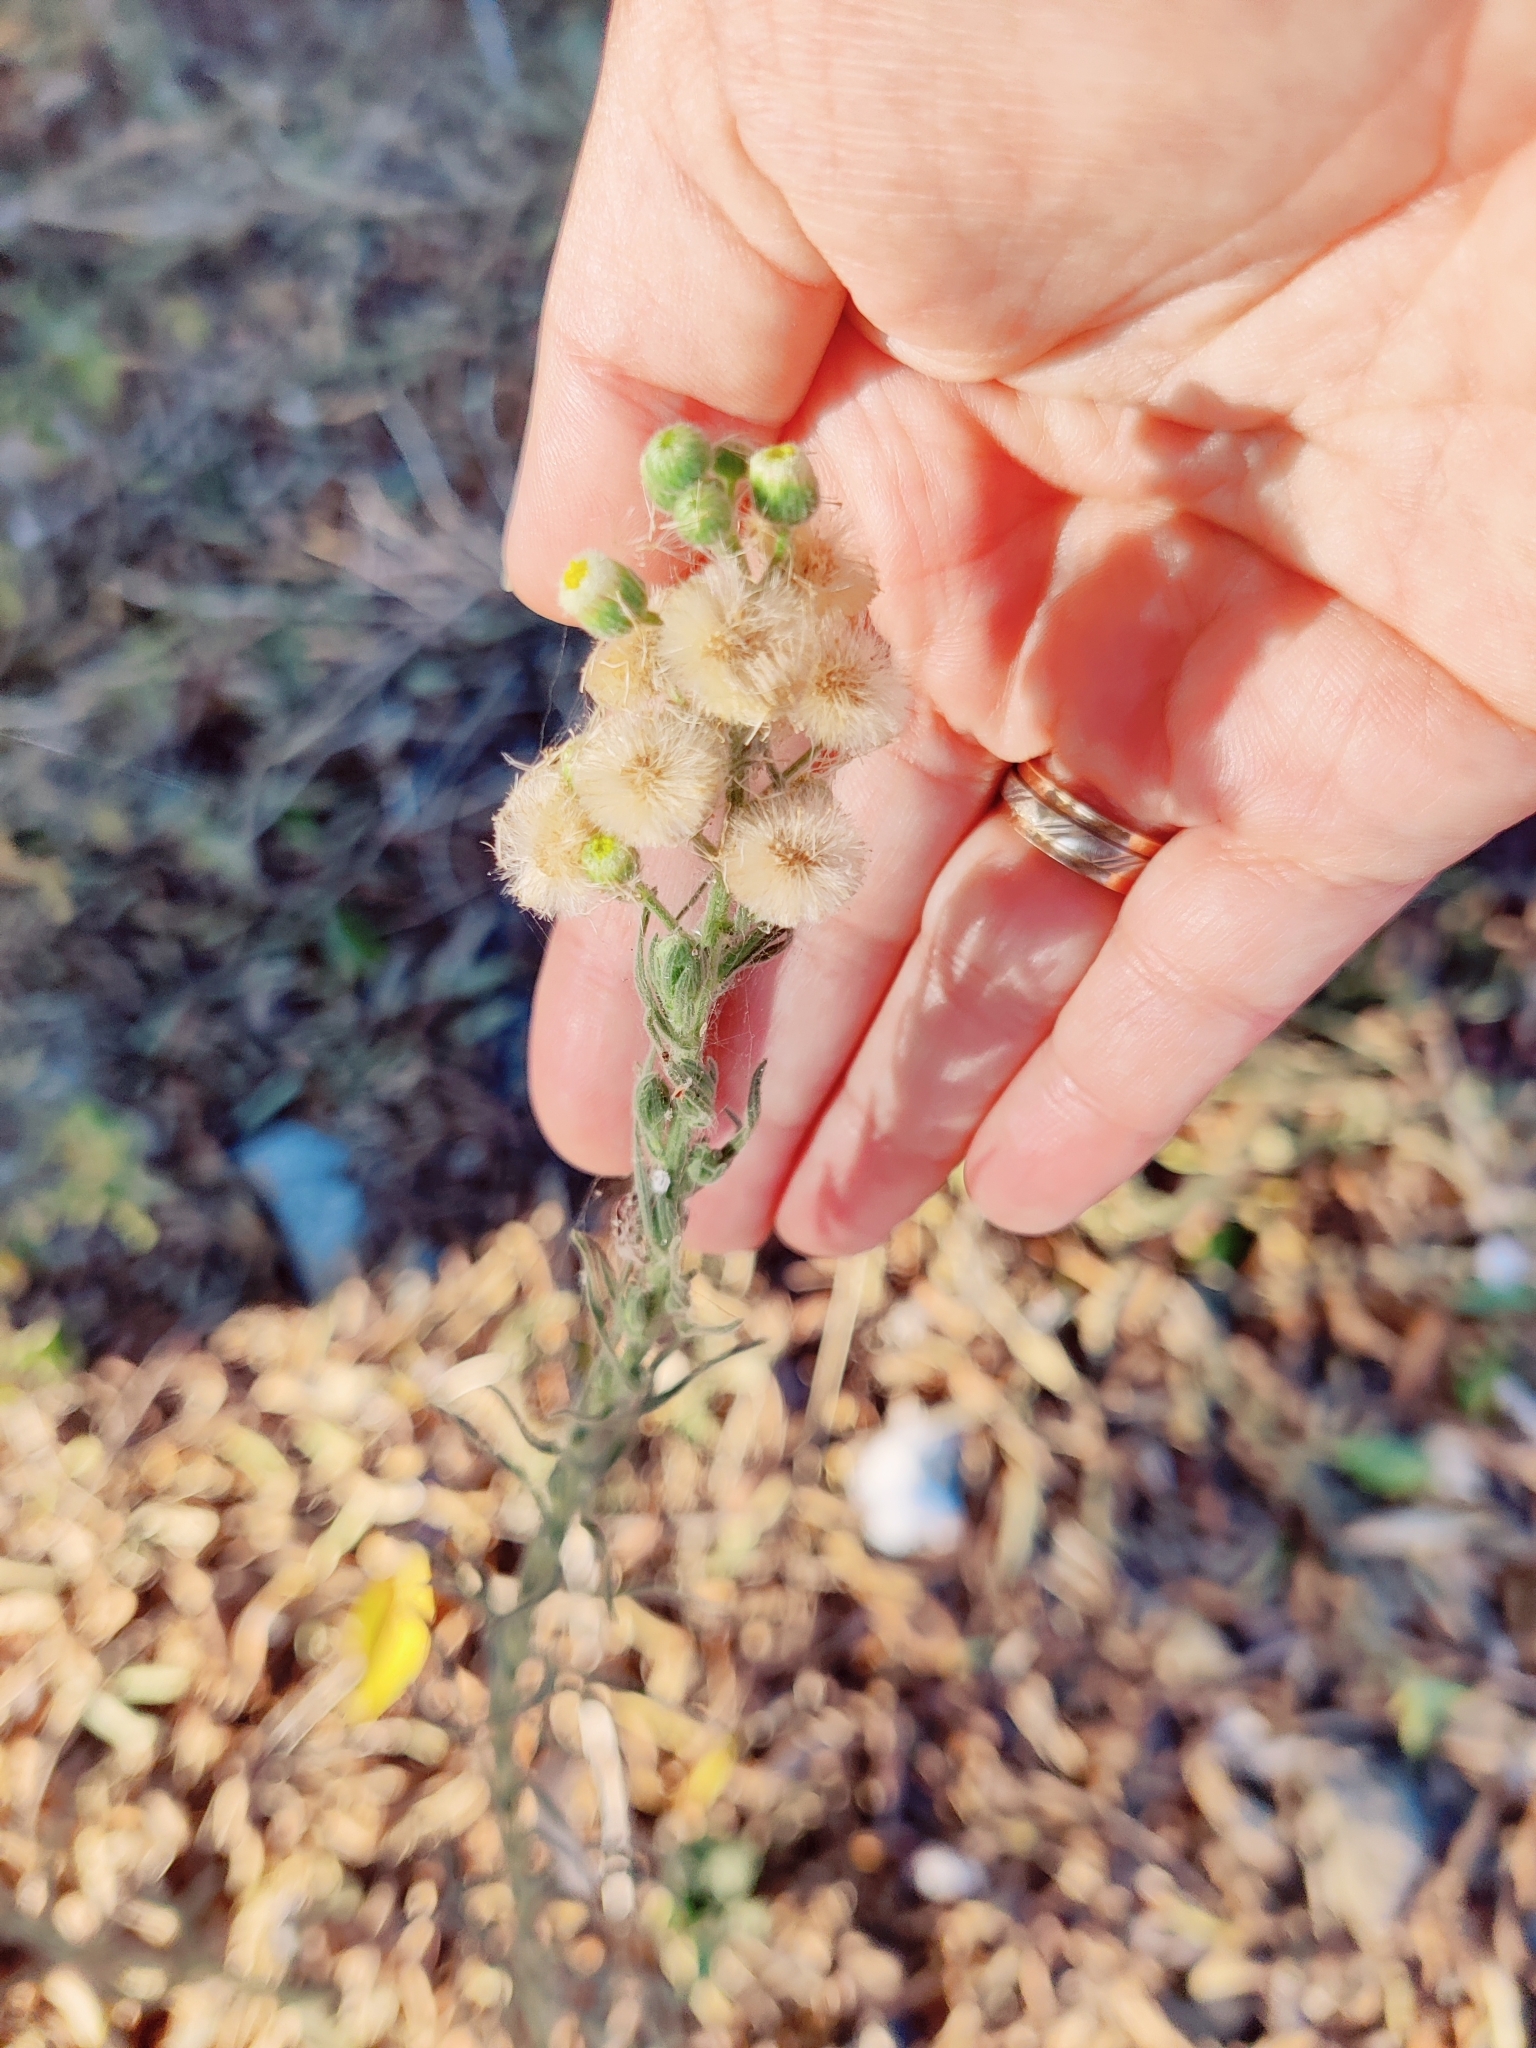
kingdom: Plantae
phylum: Tracheophyta
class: Magnoliopsida
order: Asterales
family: Asteraceae
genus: Erigeron
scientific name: Erigeron bonariensis
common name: Argentine fleabane
